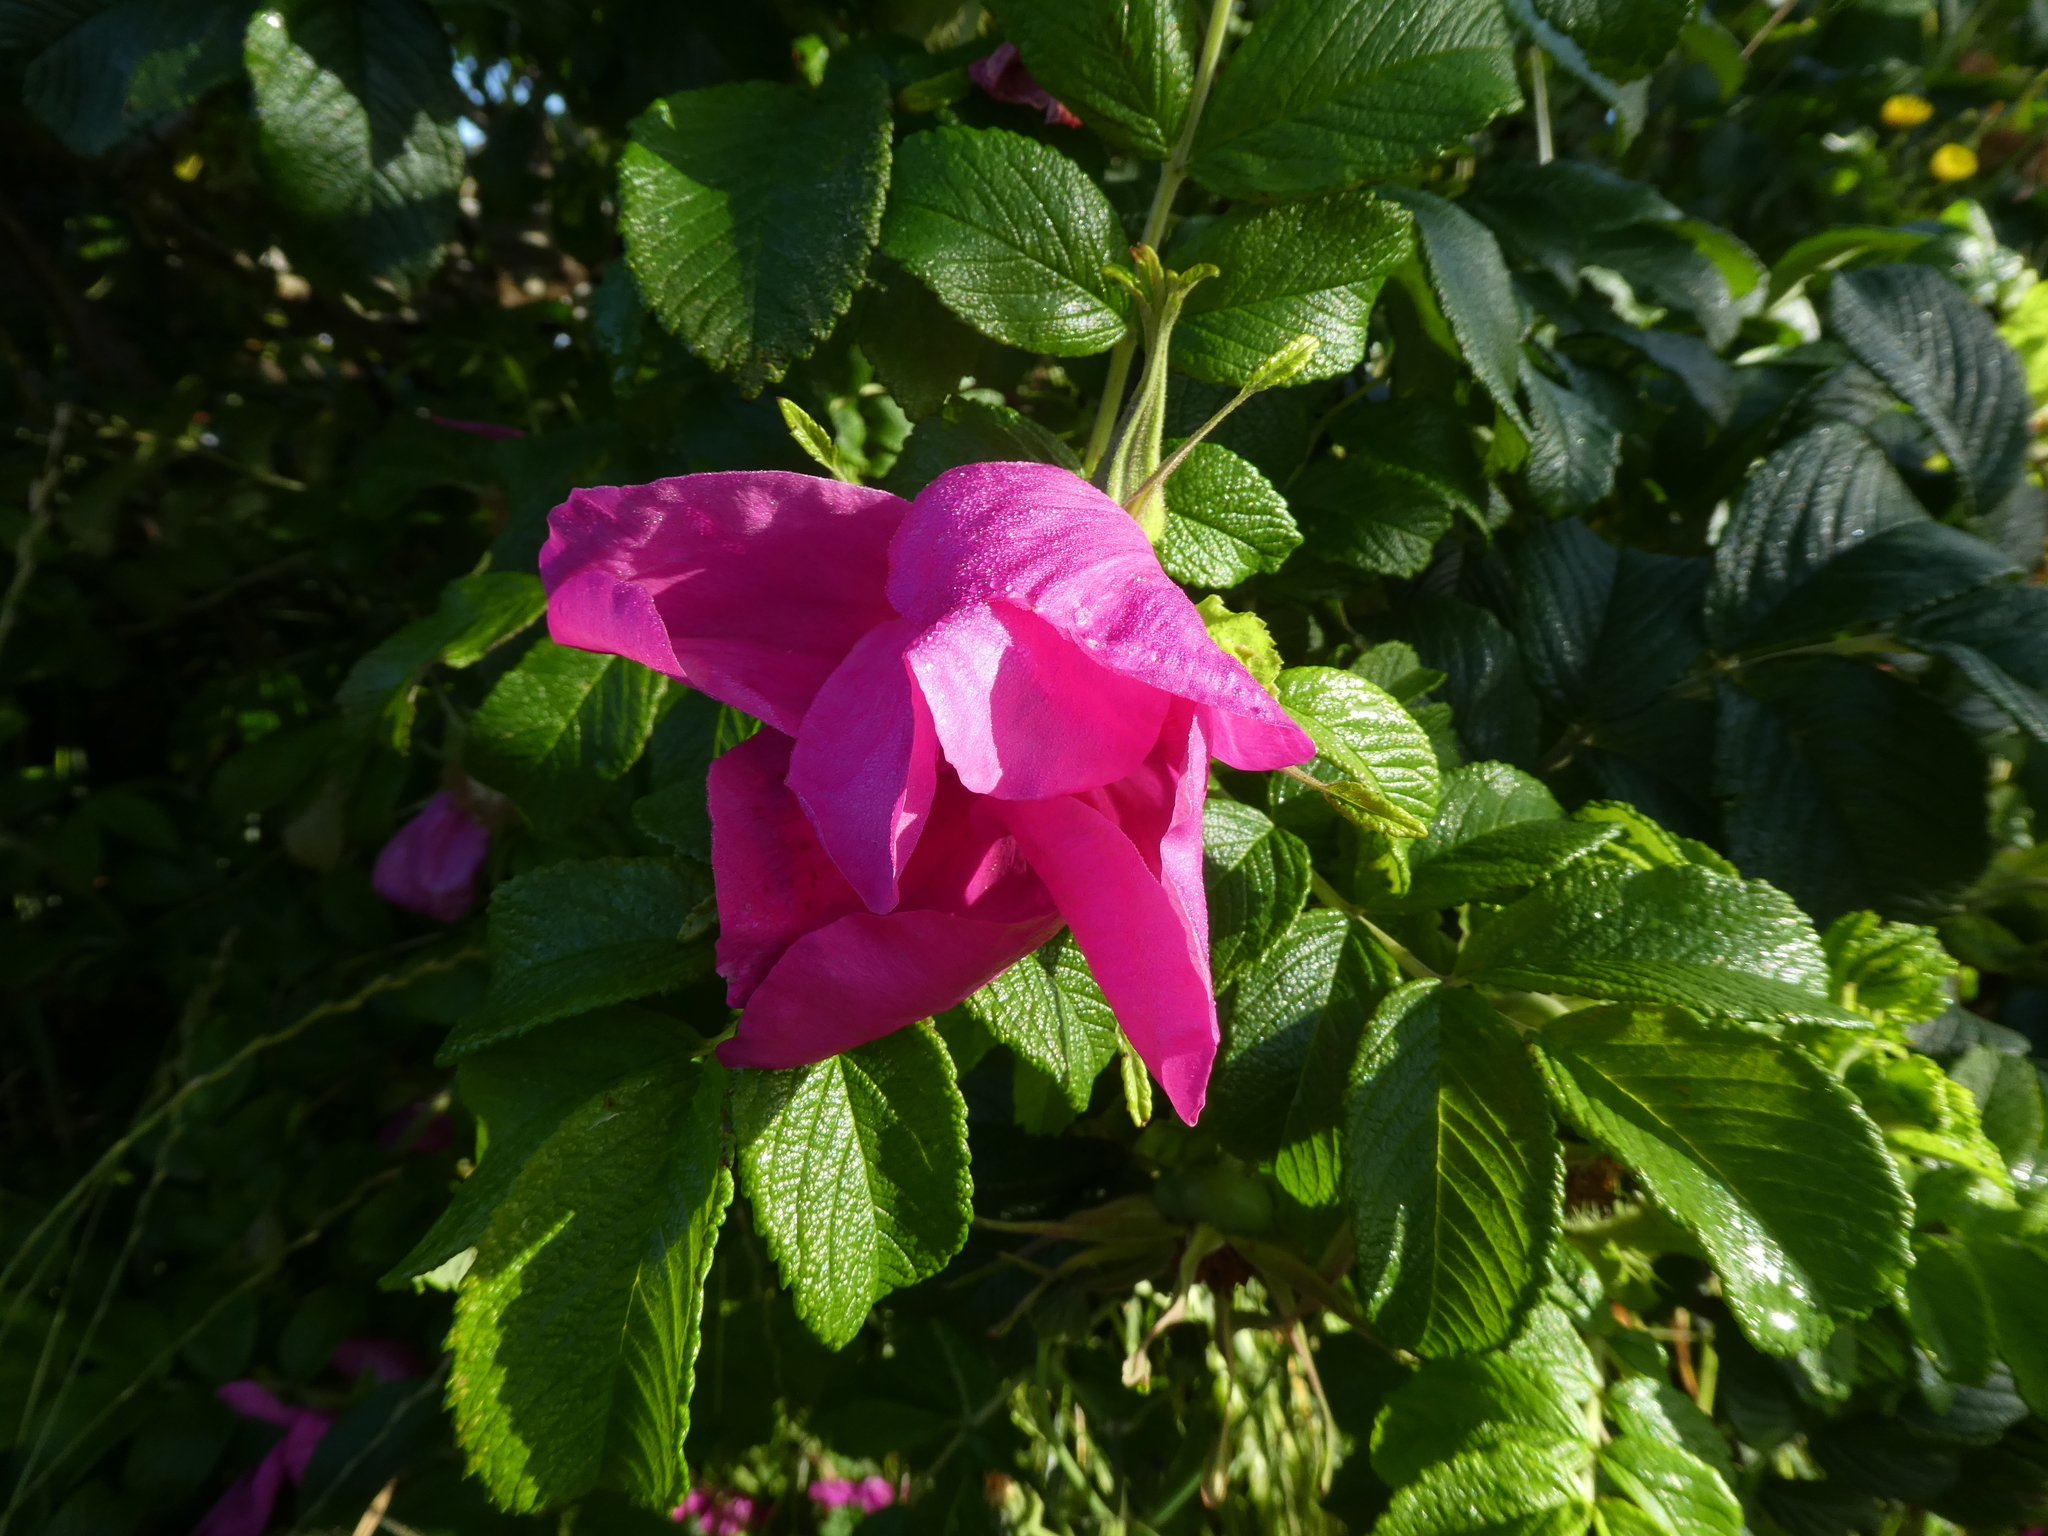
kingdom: Plantae
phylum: Tracheophyta
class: Magnoliopsida
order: Rosales
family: Rosaceae
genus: Rosa
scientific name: Rosa rugosa
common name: Japanese rose
